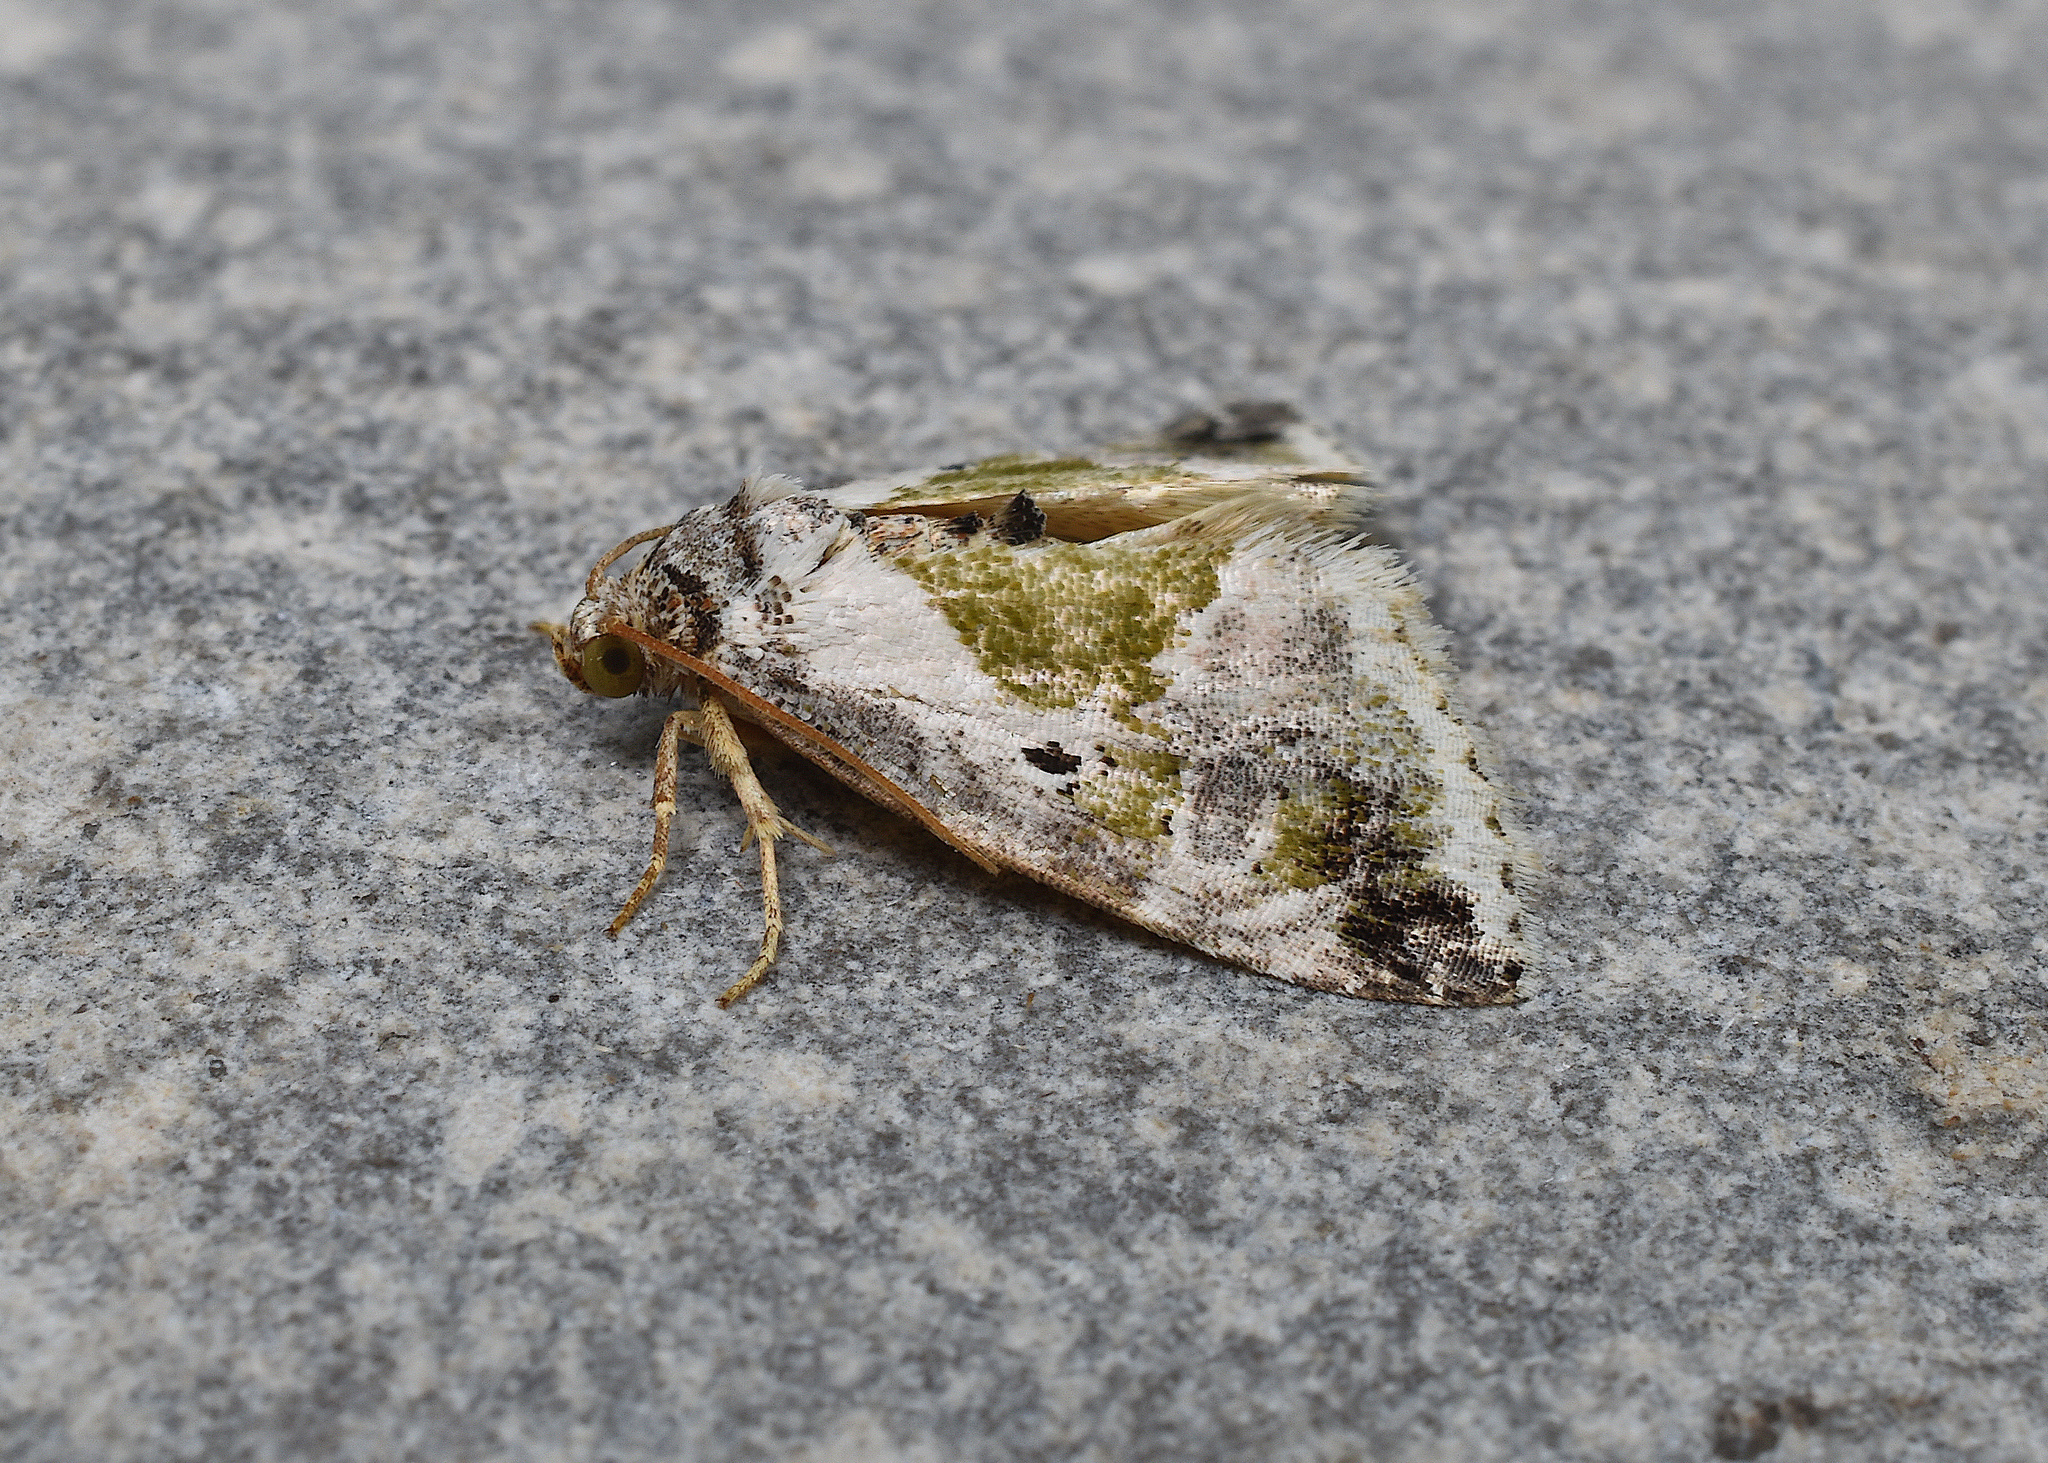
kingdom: Animalia
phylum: Arthropoda
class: Insecta
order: Lepidoptera
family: Noctuidae
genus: Maliattha
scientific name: Maliattha synochitis
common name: Black-dotted glyph
